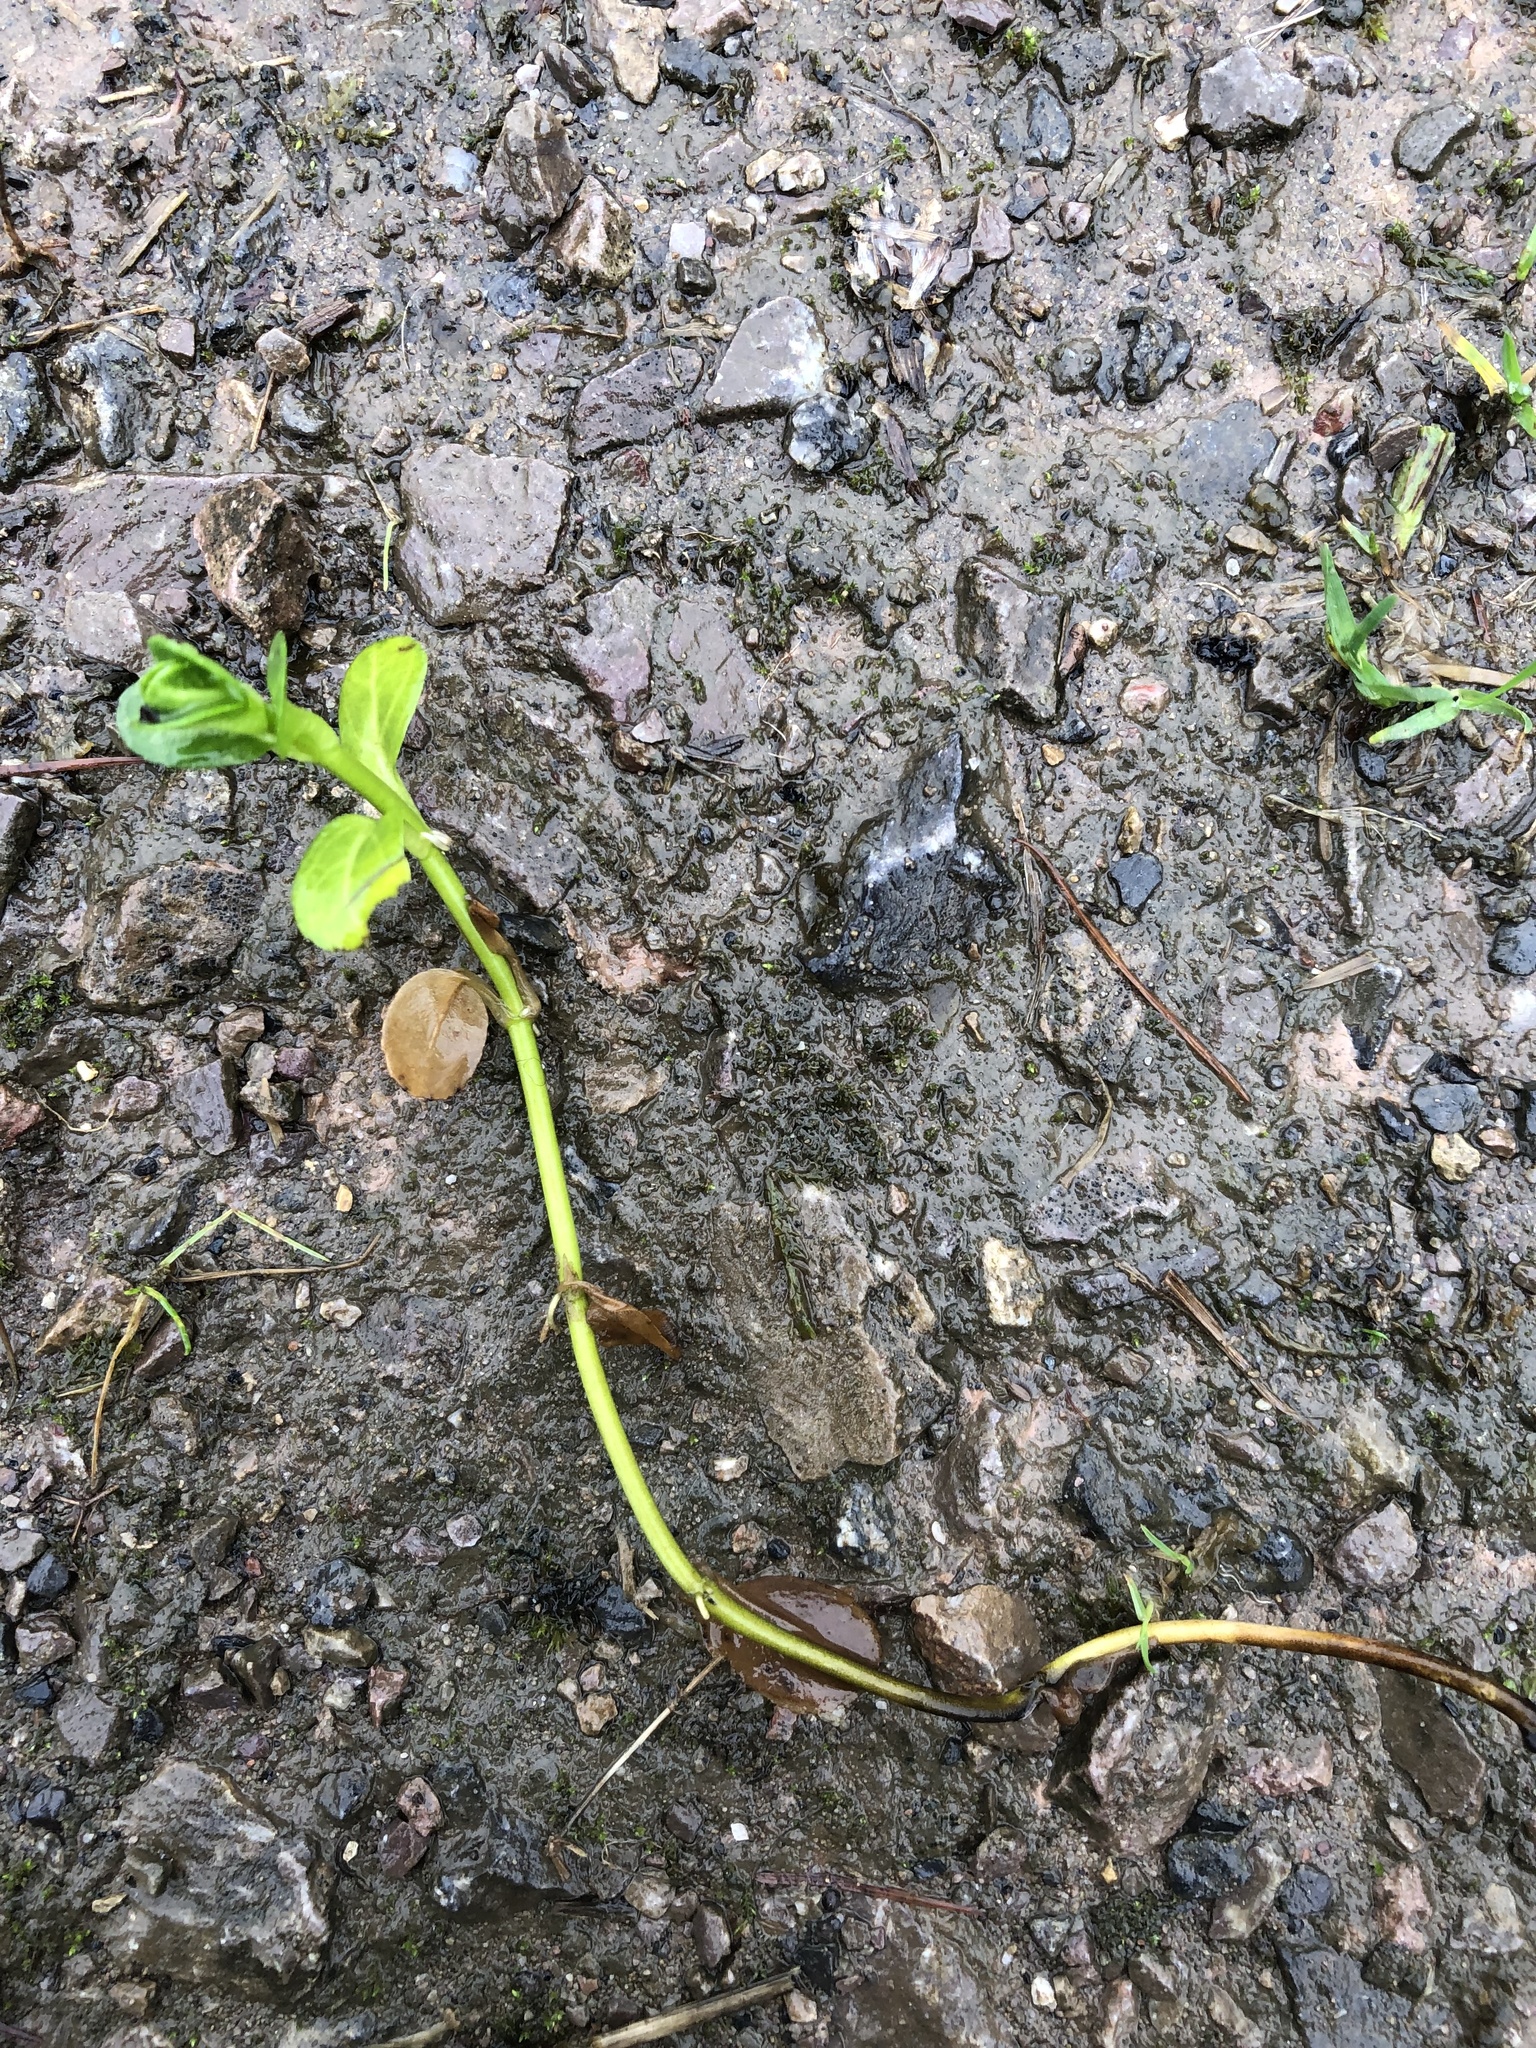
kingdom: Plantae
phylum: Tracheophyta
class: Magnoliopsida
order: Lamiales
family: Plantaginaceae
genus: Veronica
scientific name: Veronica beccabunga
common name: Brooklime
